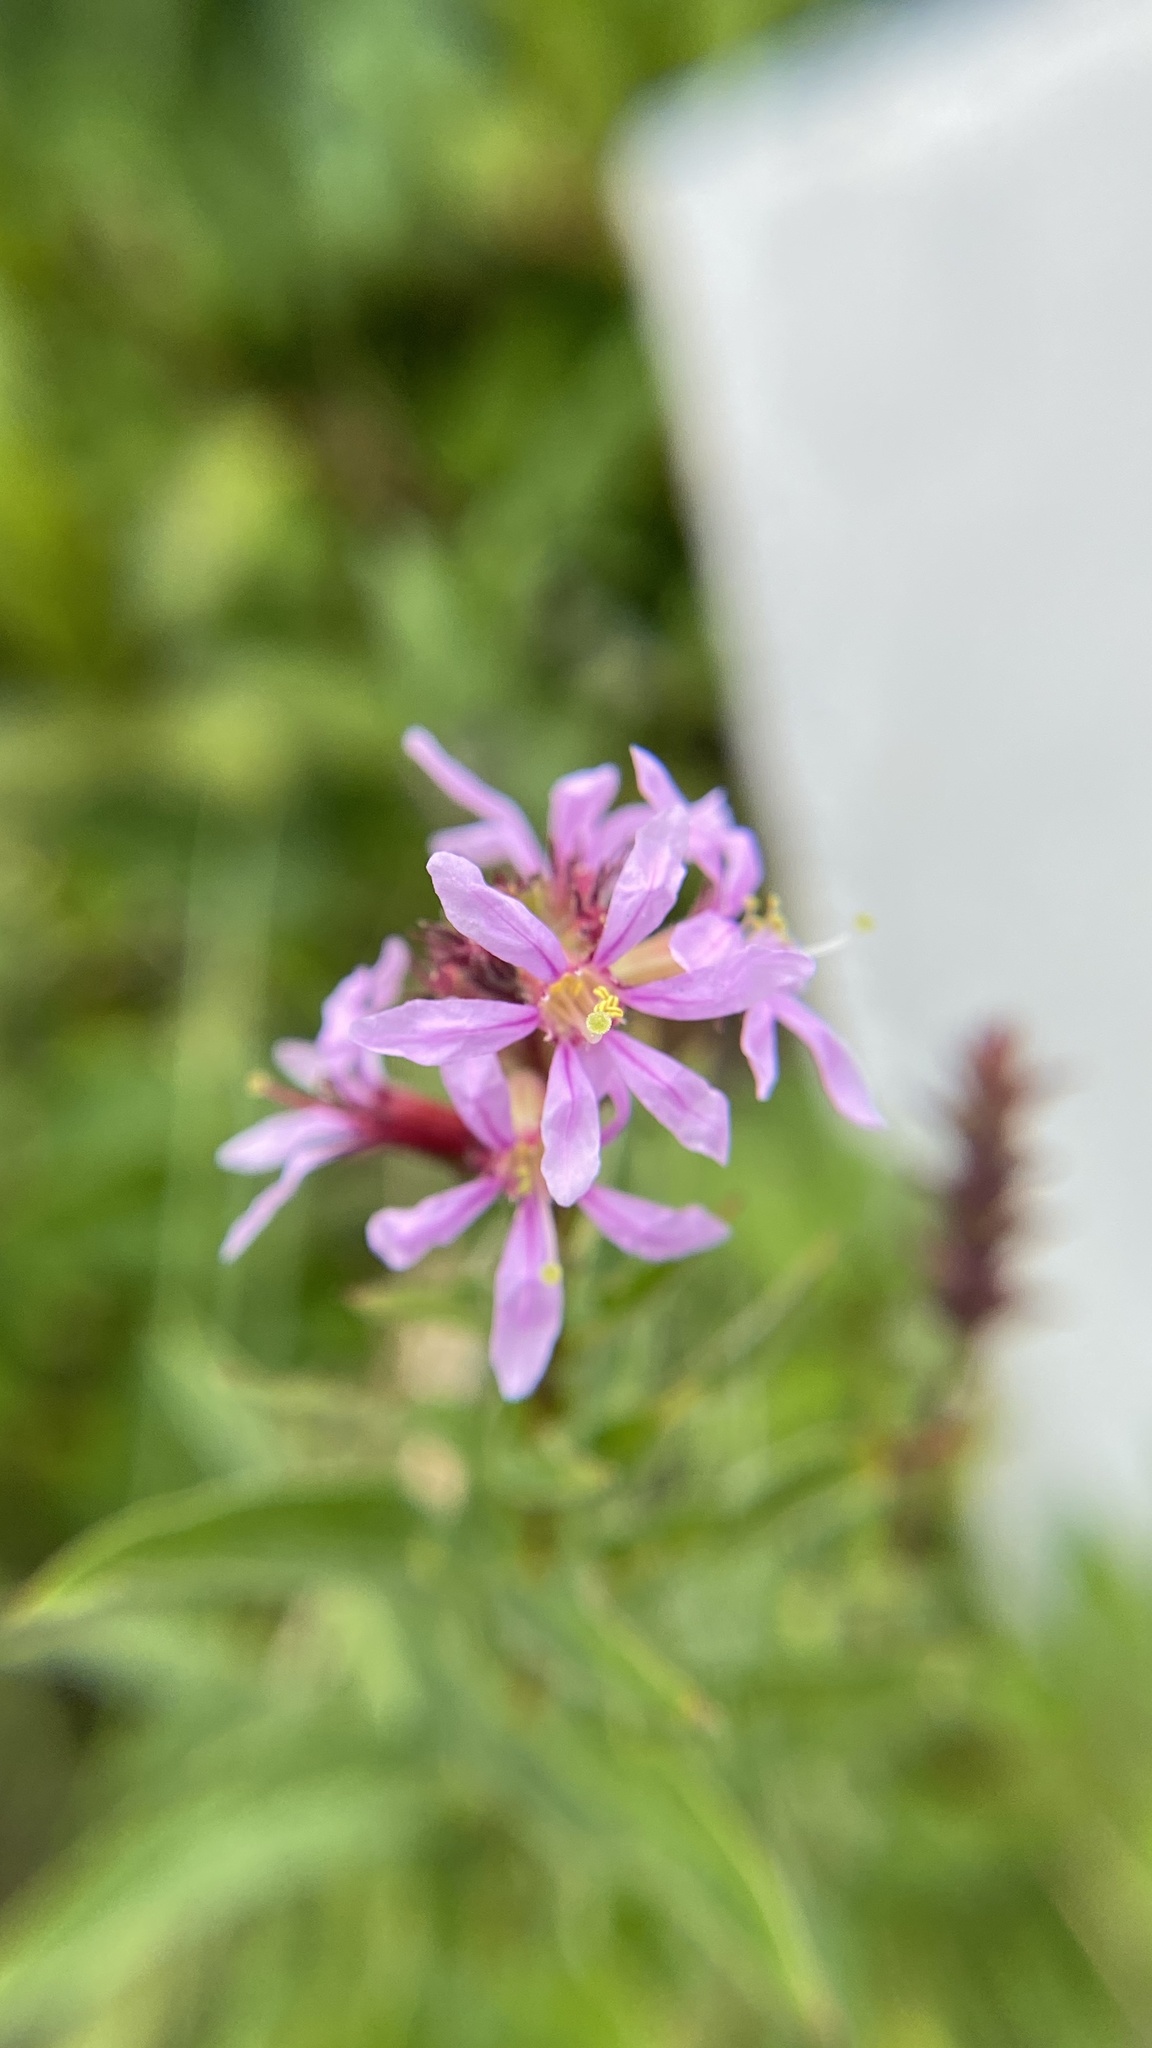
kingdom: Plantae
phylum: Tracheophyta
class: Magnoliopsida
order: Myrtales
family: Lythraceae
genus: Lythrum
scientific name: Lythrum salicaria
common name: Purple loosestrife
